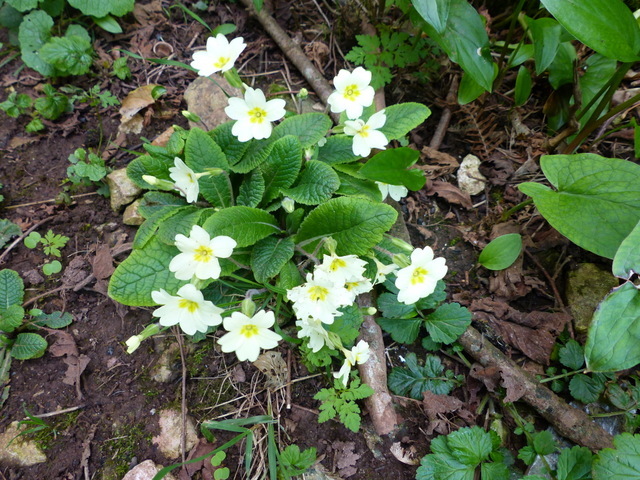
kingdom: Plantae
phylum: Tracheophyta
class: Magnoliopsida
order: Ericales
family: Primulaceae
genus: Primula
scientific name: Primula vulgaris
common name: Primrose
